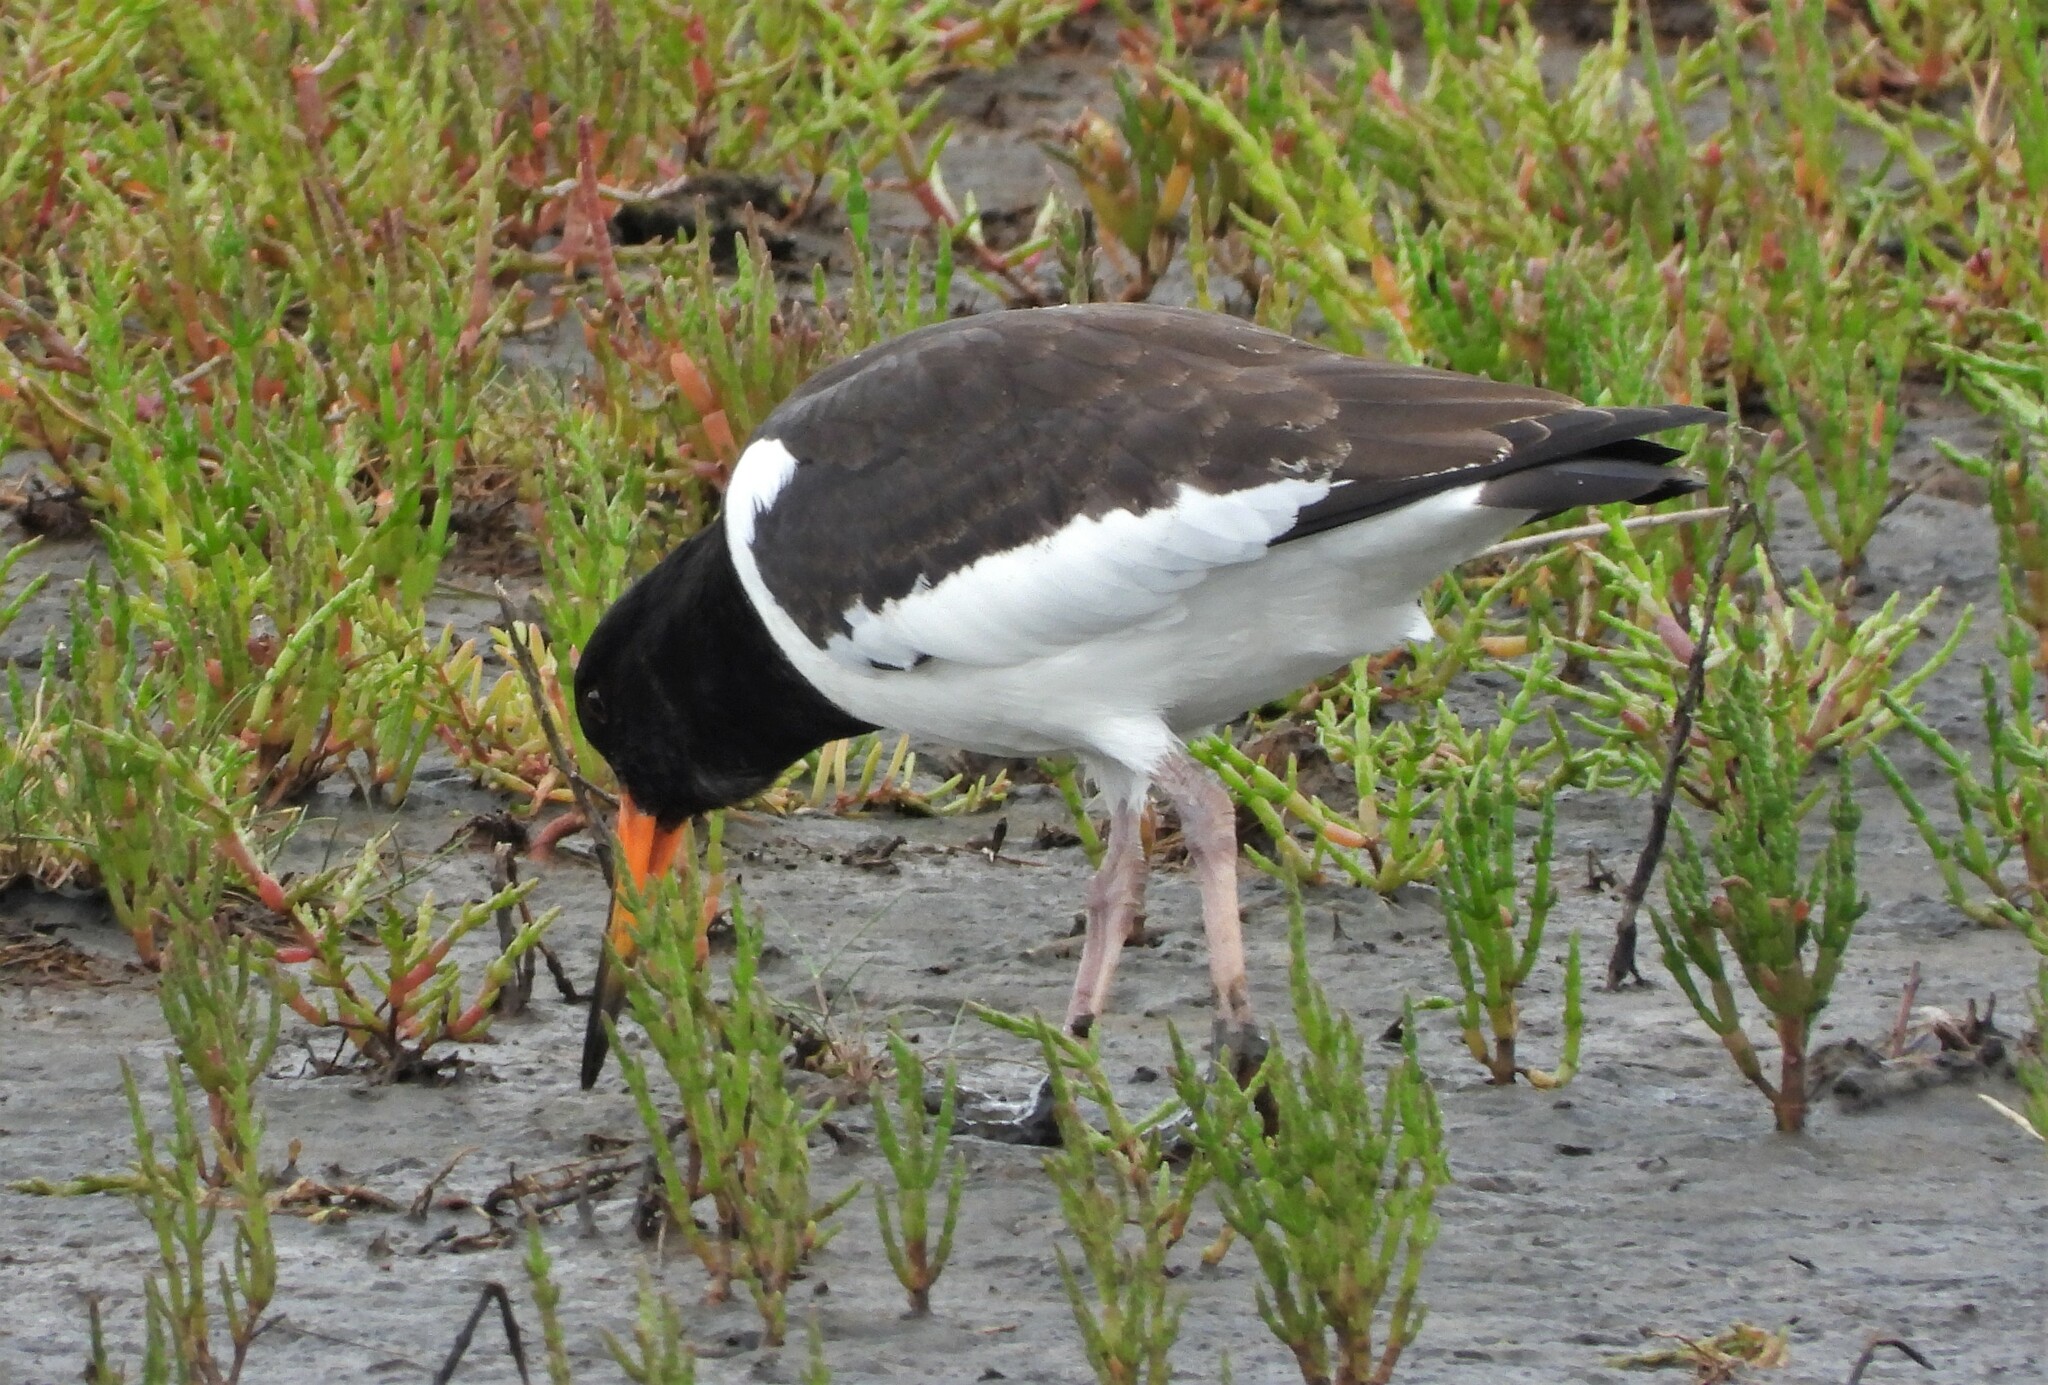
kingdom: Animalia
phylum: Chordata
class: Aves
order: Charadriiformes
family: Haematopodidae
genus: Haematopus
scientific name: Haematopus ostralegus
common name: Eurasian oystercatcher
